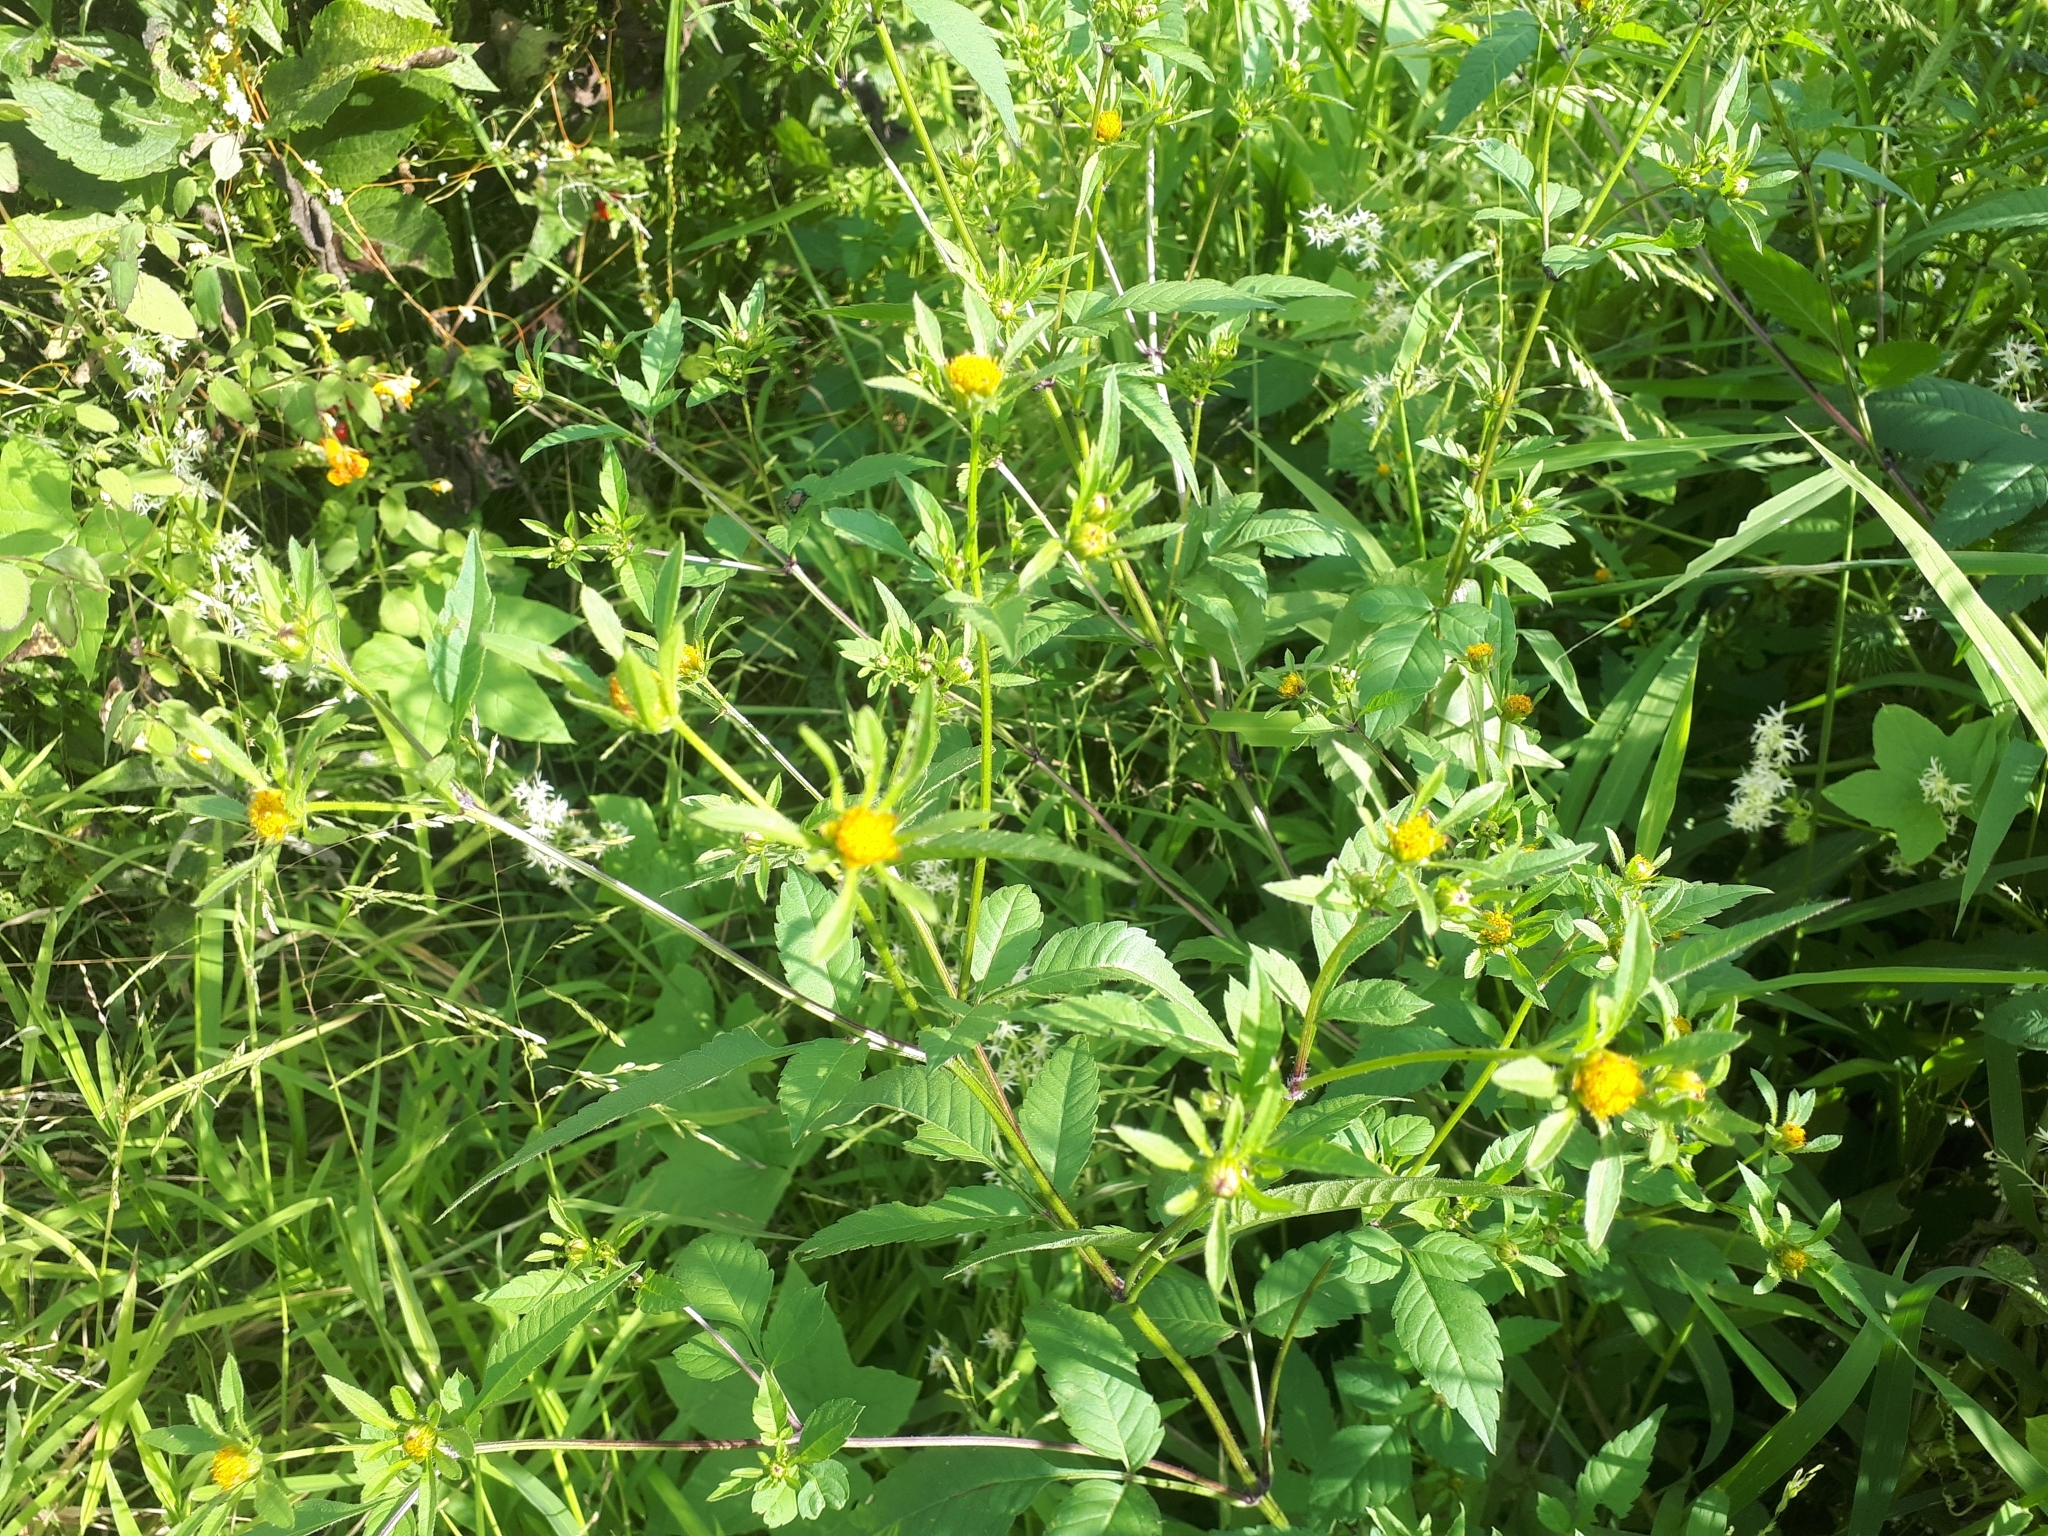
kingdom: Plantae
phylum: Tracheophyta
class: Magnoliopsida
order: Asterales
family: Asteraceae
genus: Bidens
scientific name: Bidens frondosa
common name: Beggarticks
